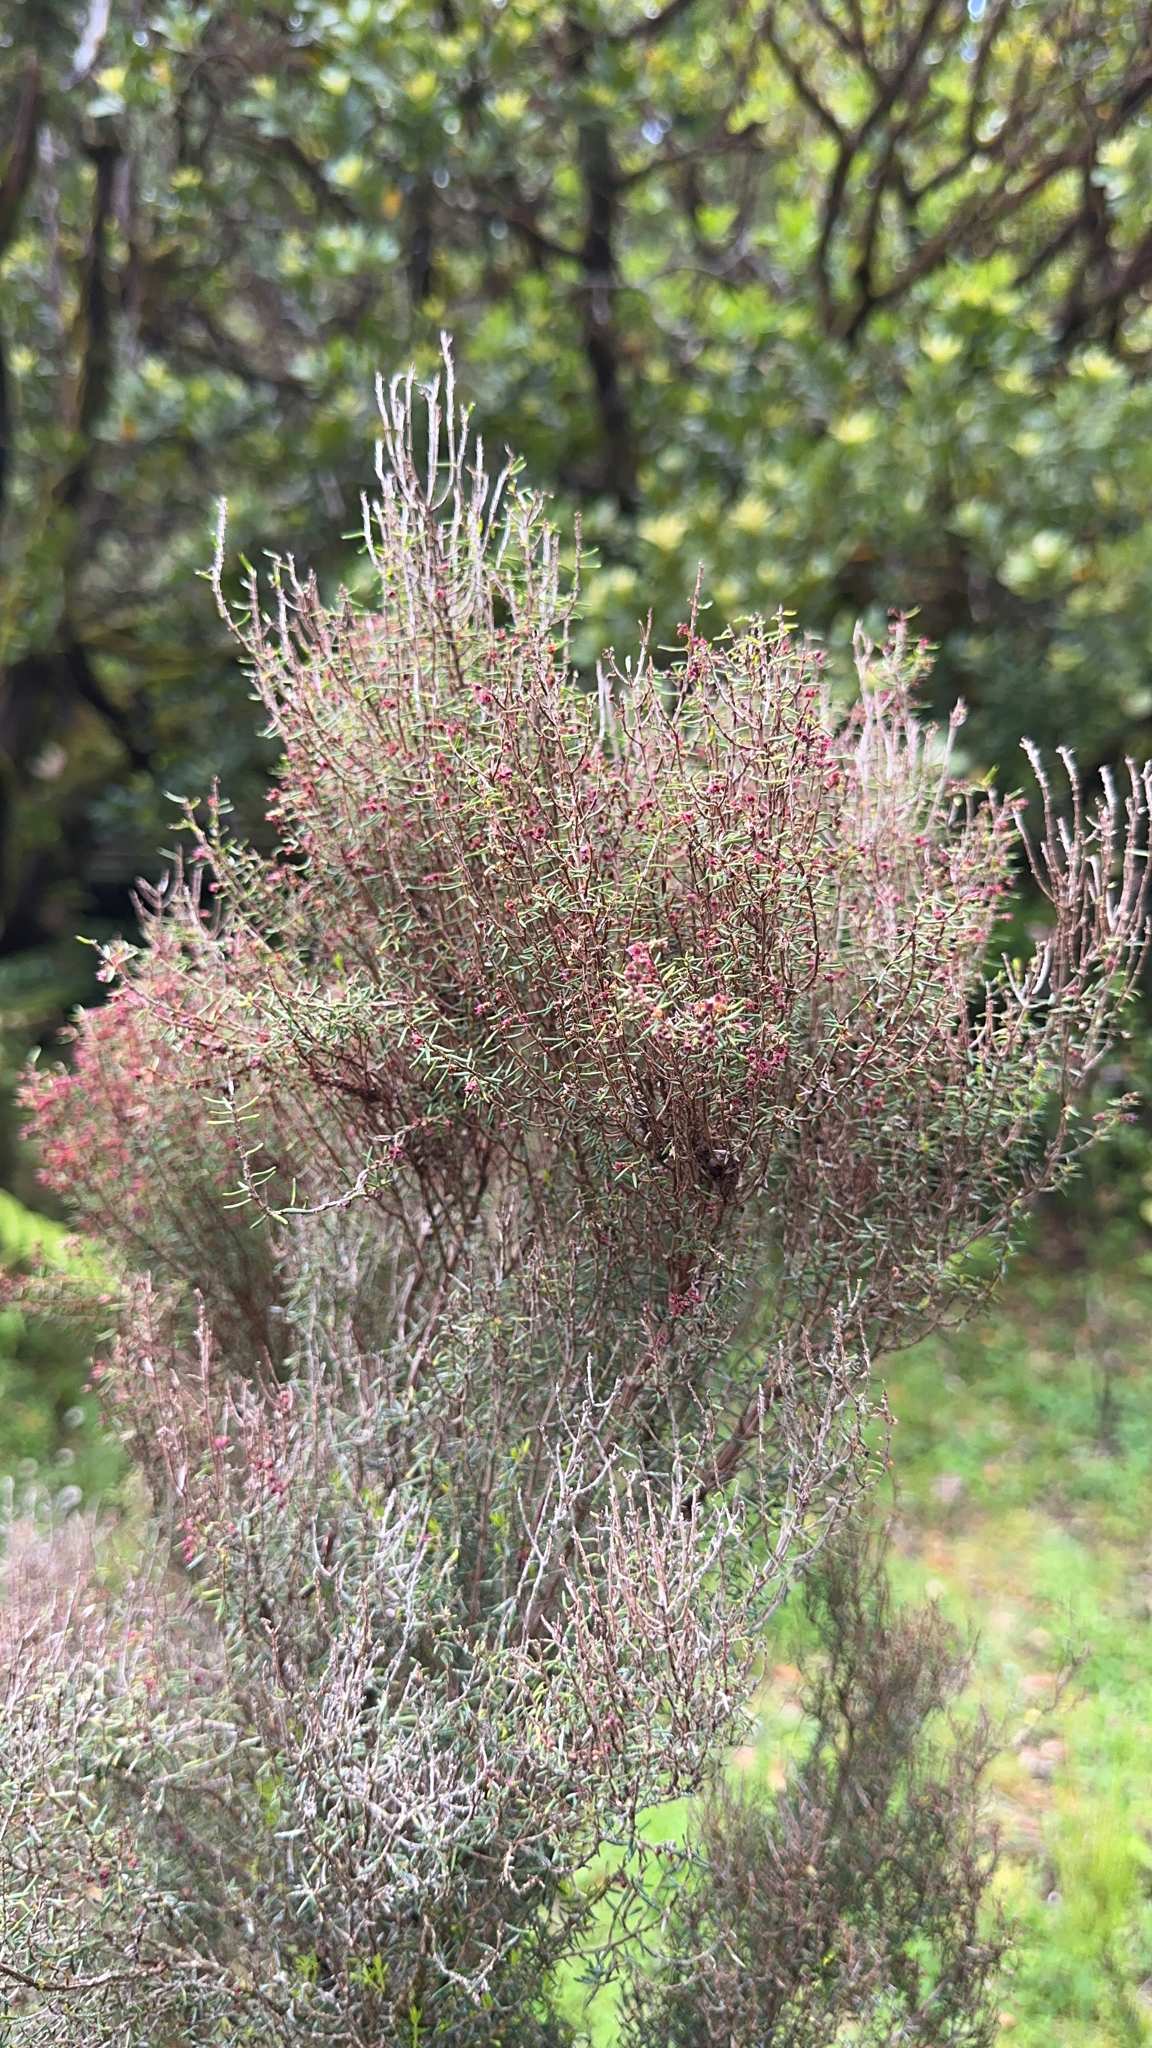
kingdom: Plantae
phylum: Tracheophyta
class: Magnoliopsida
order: Ericales
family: Ericaceae
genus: Erica
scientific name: Erica azorica
